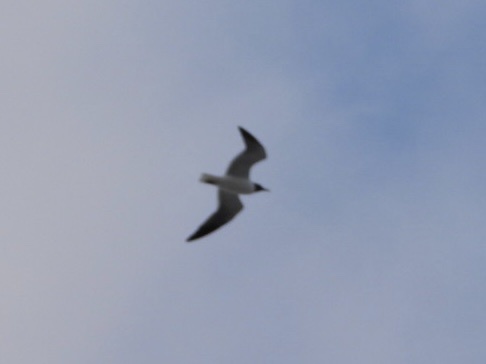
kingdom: Animalia
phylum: Chordata
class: Aves
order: Charadriiformes
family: Laridae
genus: Leucophaeus
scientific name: Leucophaeus atricilla
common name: Laughing gull
